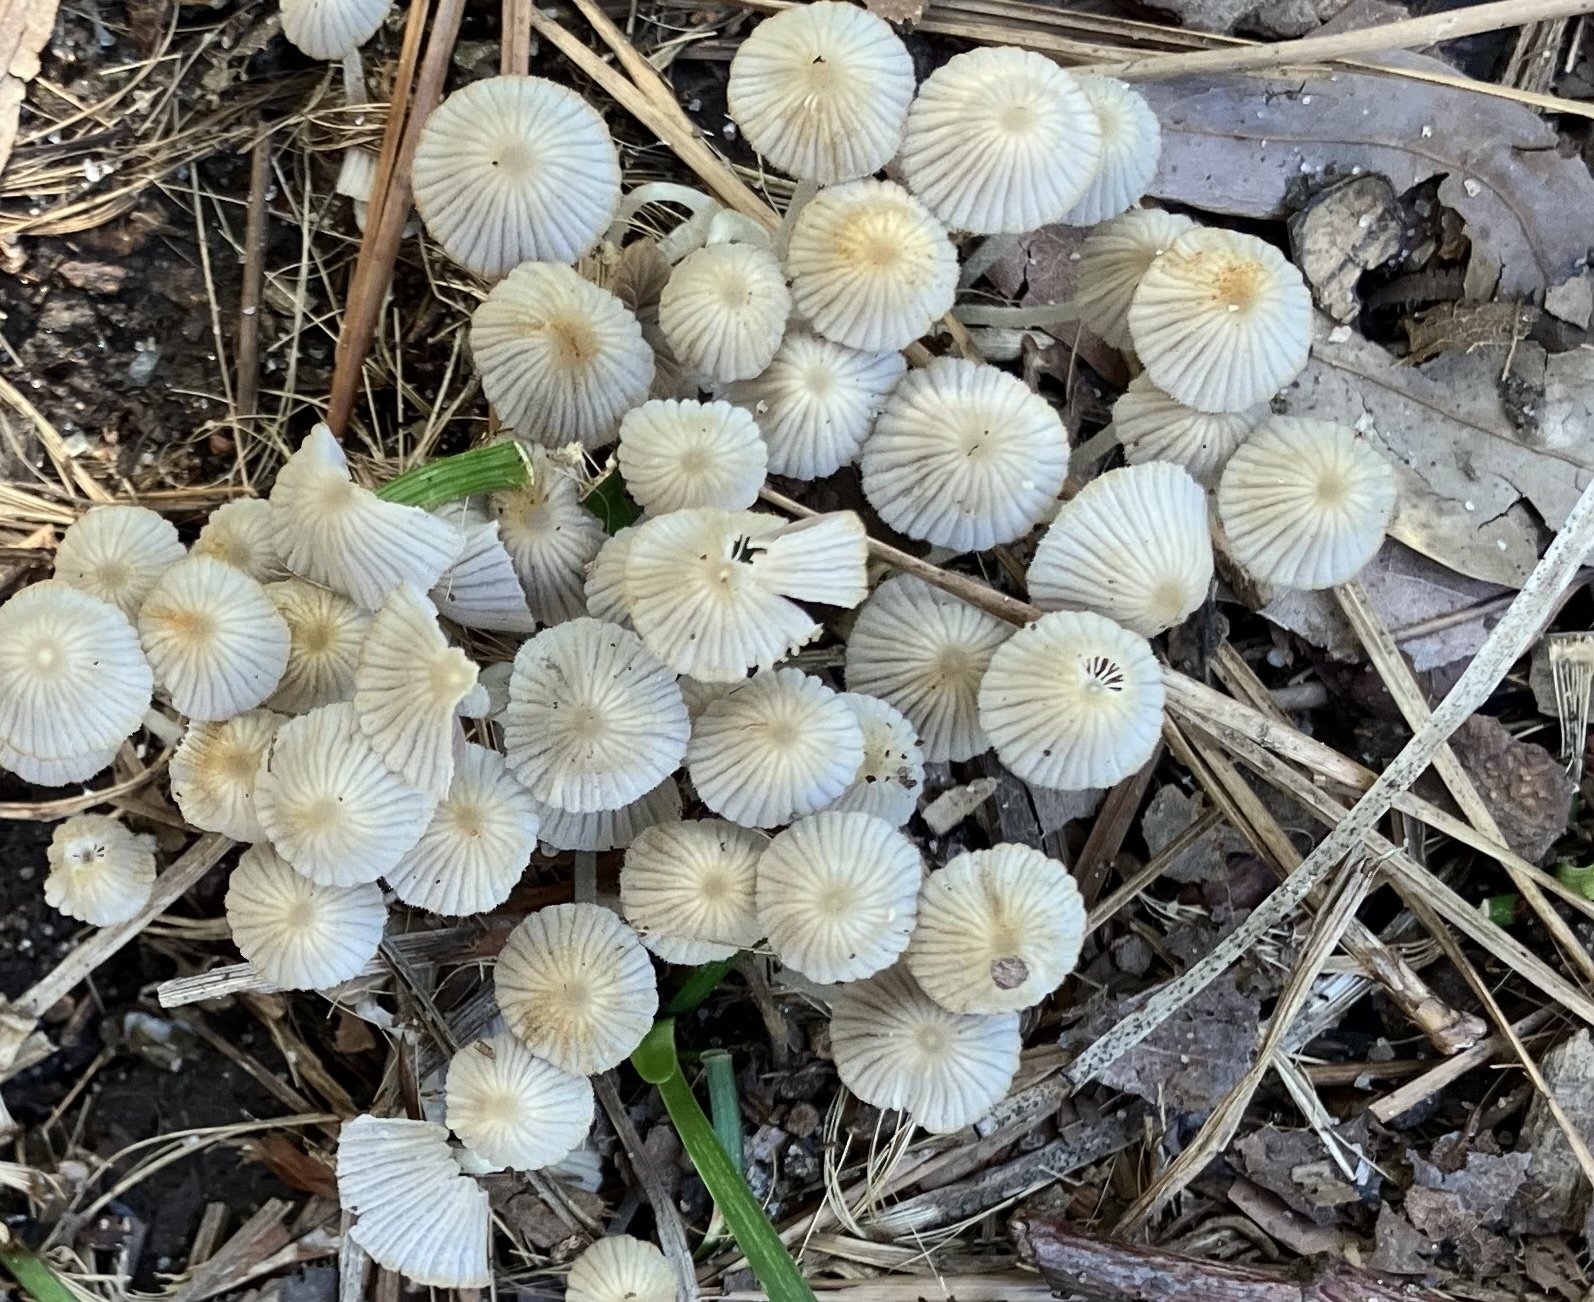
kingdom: Fungi
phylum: Basidiomycota
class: Agaricomycetes
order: Agaricales
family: Psathyrellaceae
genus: Coprinellus
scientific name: Coprinellus disseminatus
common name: Fairies' bonnets
